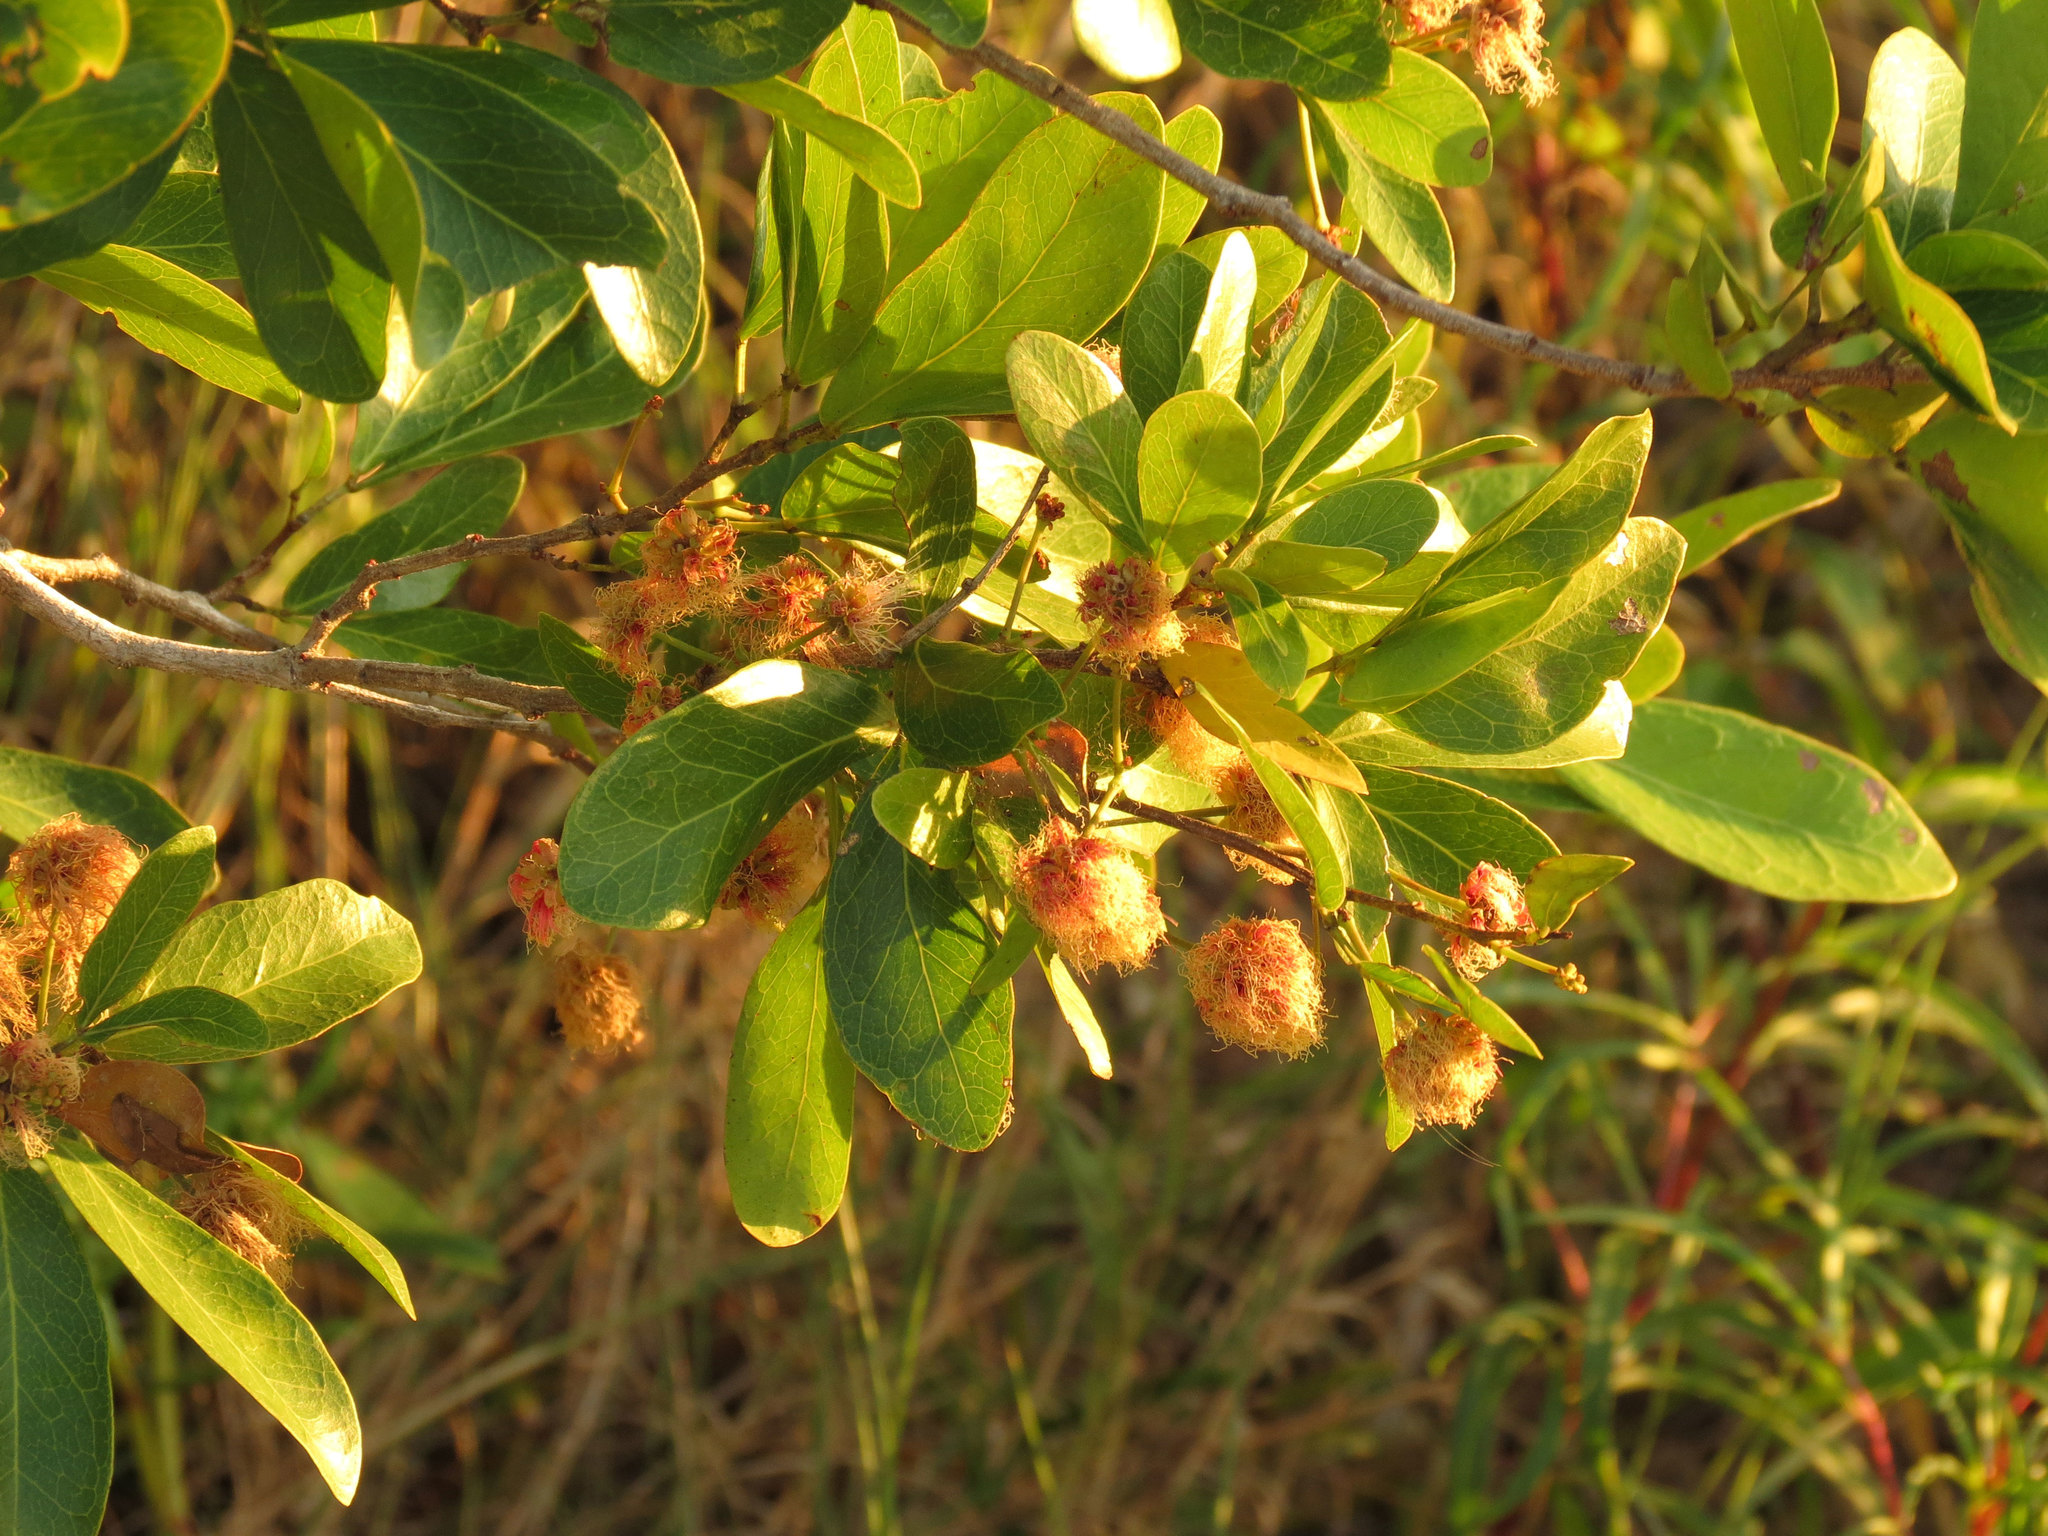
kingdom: Plantae
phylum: Tracheophyta
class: Magnoliopsida
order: Fabales
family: Fabaceae
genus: Pithecellobium
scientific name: Pithecellobium keyense
